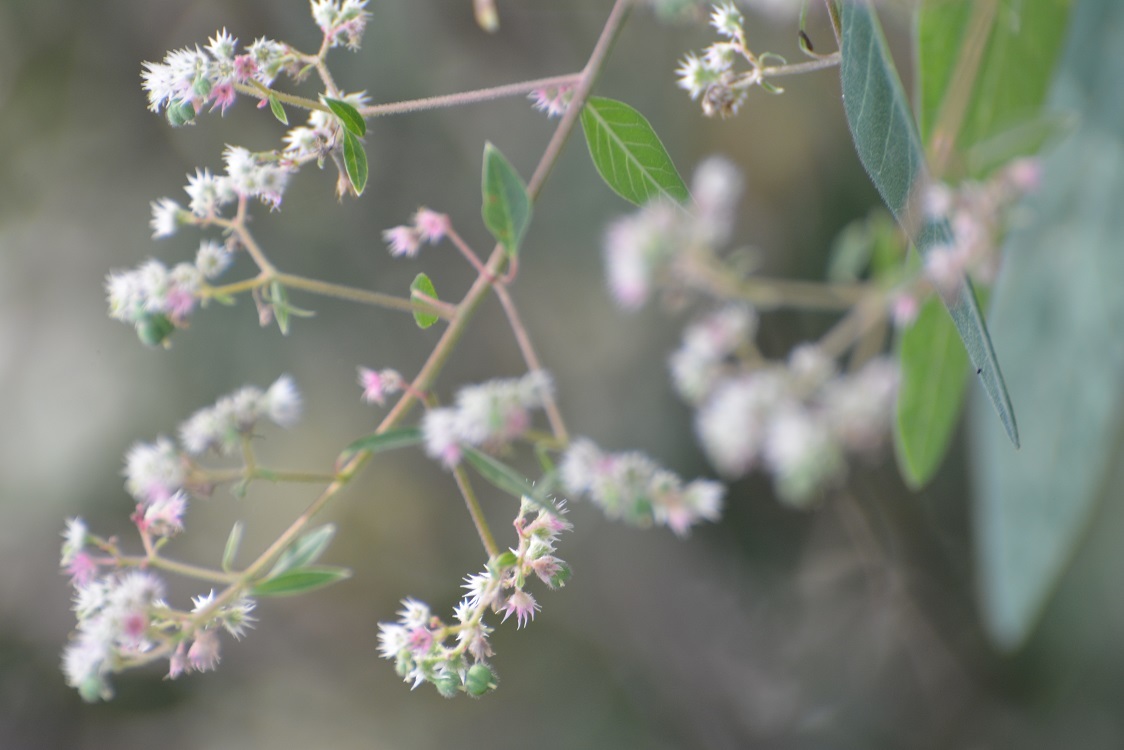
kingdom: Plantae
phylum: Tracheophyta
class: Magnoliopsida
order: Malpighiales
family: Euphorbiaceae
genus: Euphorbia
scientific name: Euphorbia segoviensis
